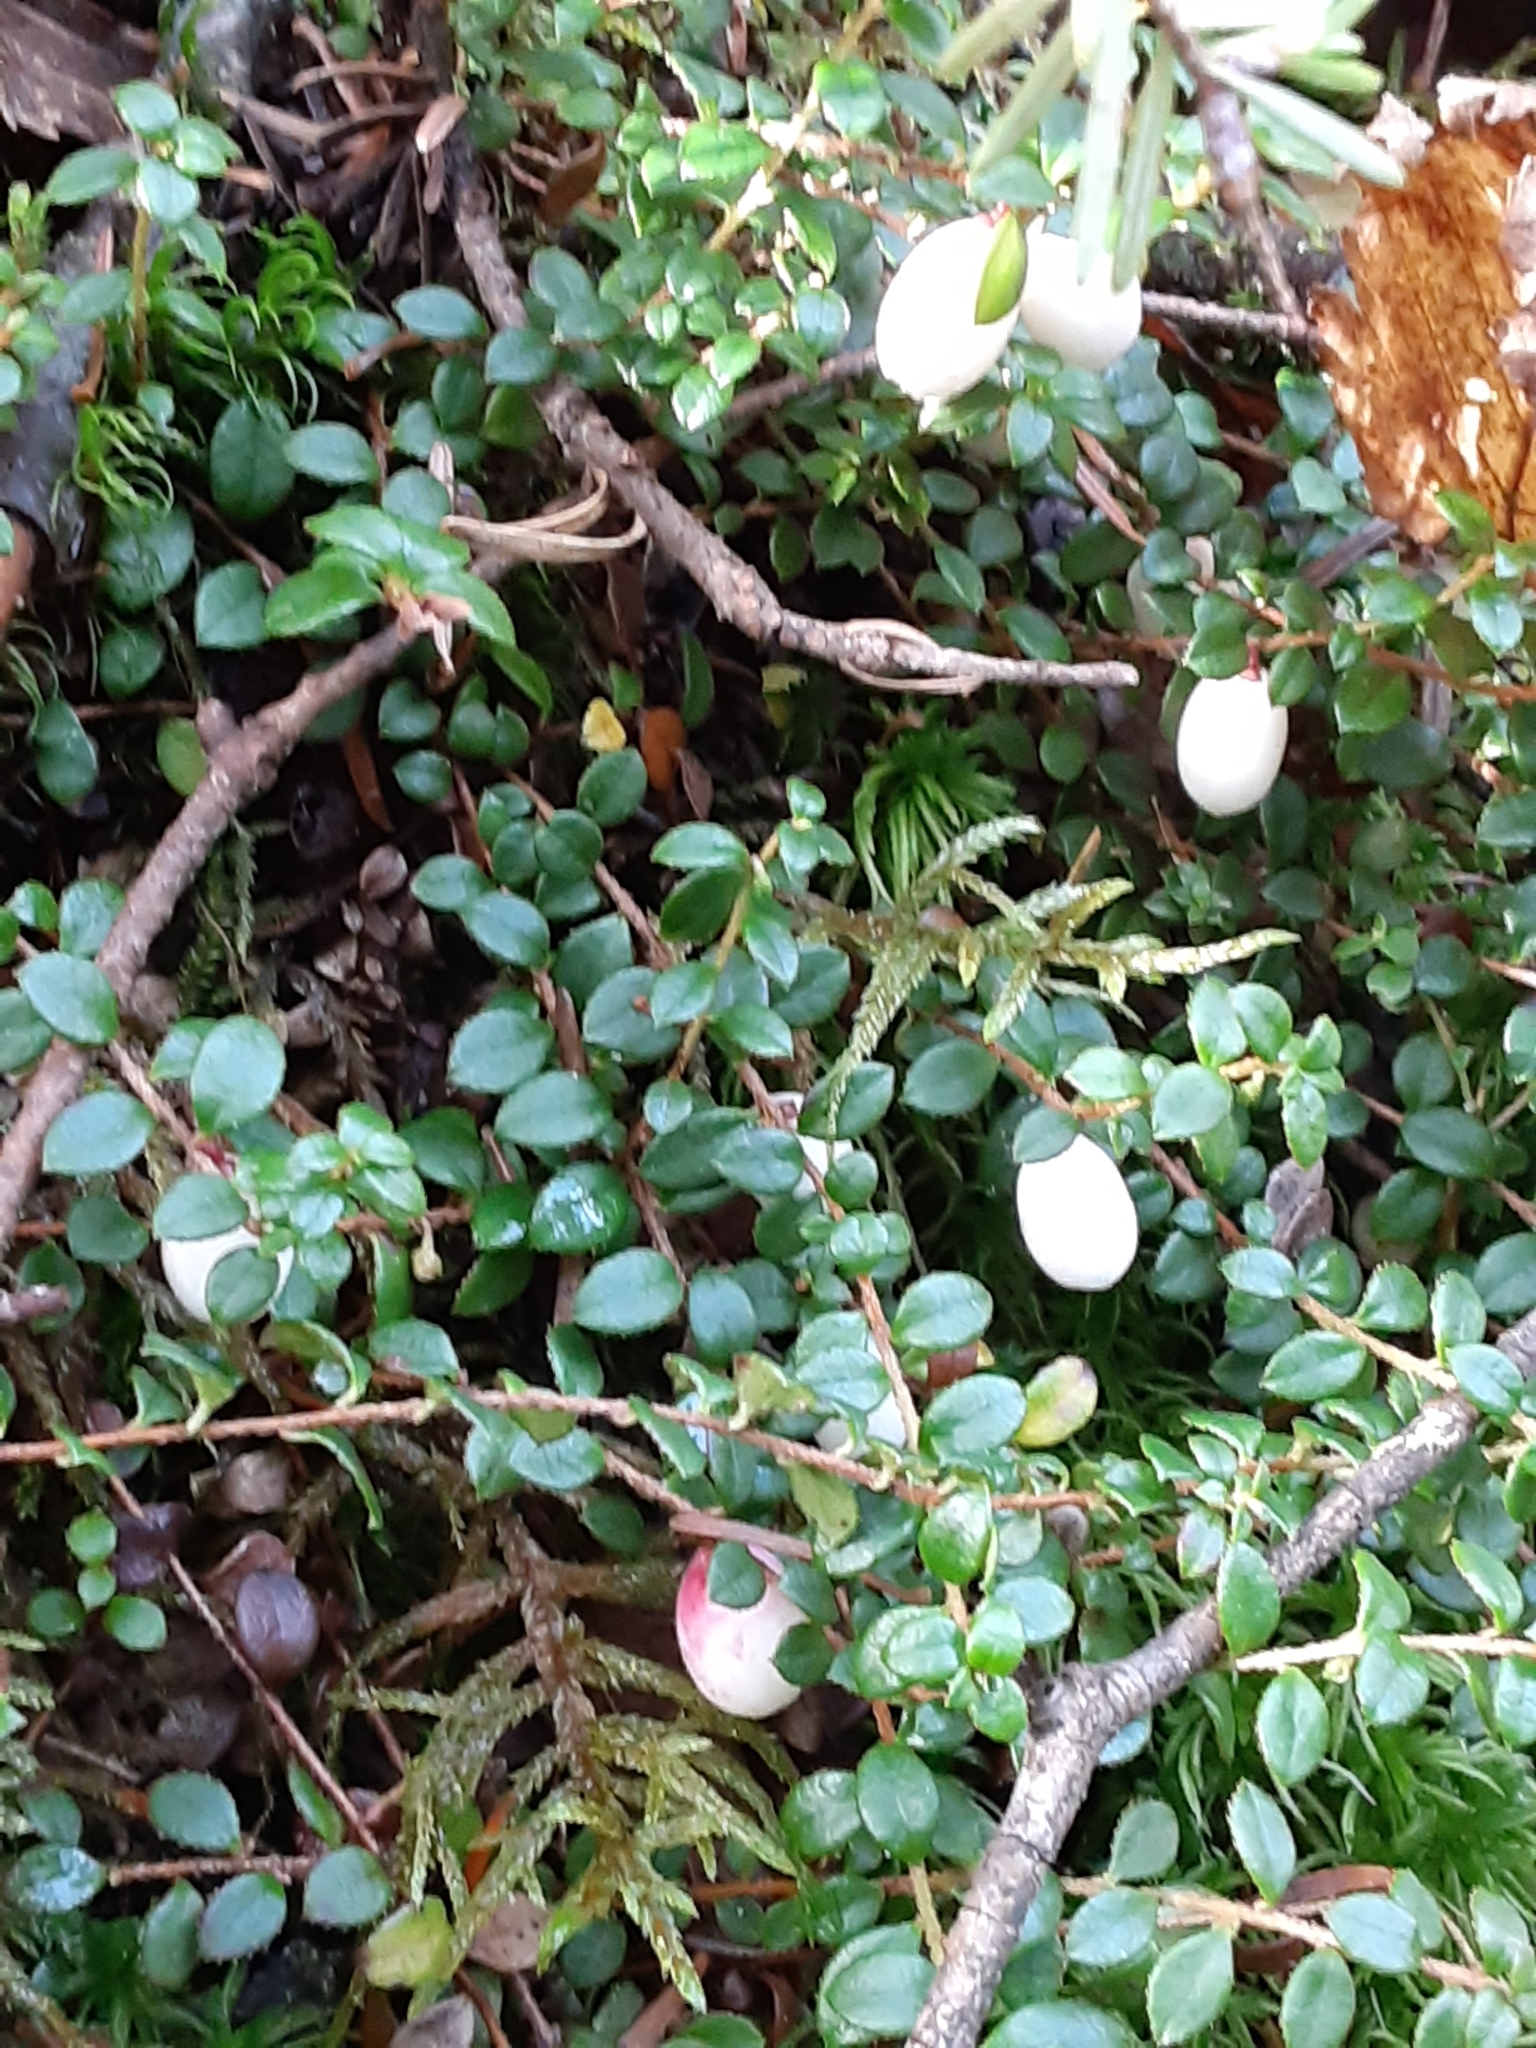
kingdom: Plantae
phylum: Tracheophyta
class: Magnoliopsida
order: Ericales
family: Ericaceae
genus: Gaultheria
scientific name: Gaultheria hispidula
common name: Cancer wintergreen
